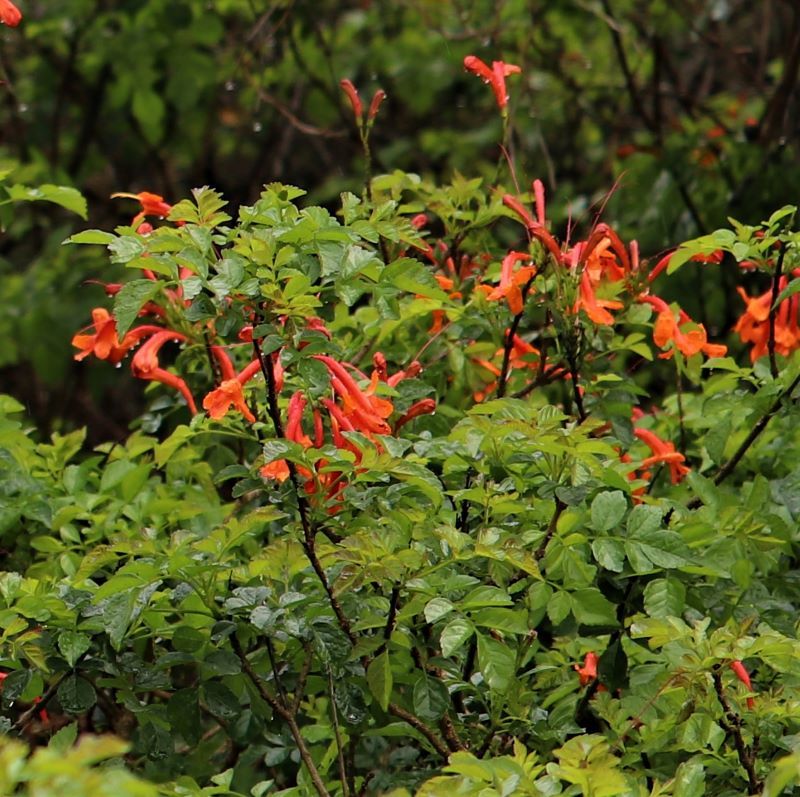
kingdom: Plantae
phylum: Tracheophyta
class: Magnoliopsida
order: Lamiales
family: Bignoniaceae
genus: Tecomaria
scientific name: Tecomaria capensis
